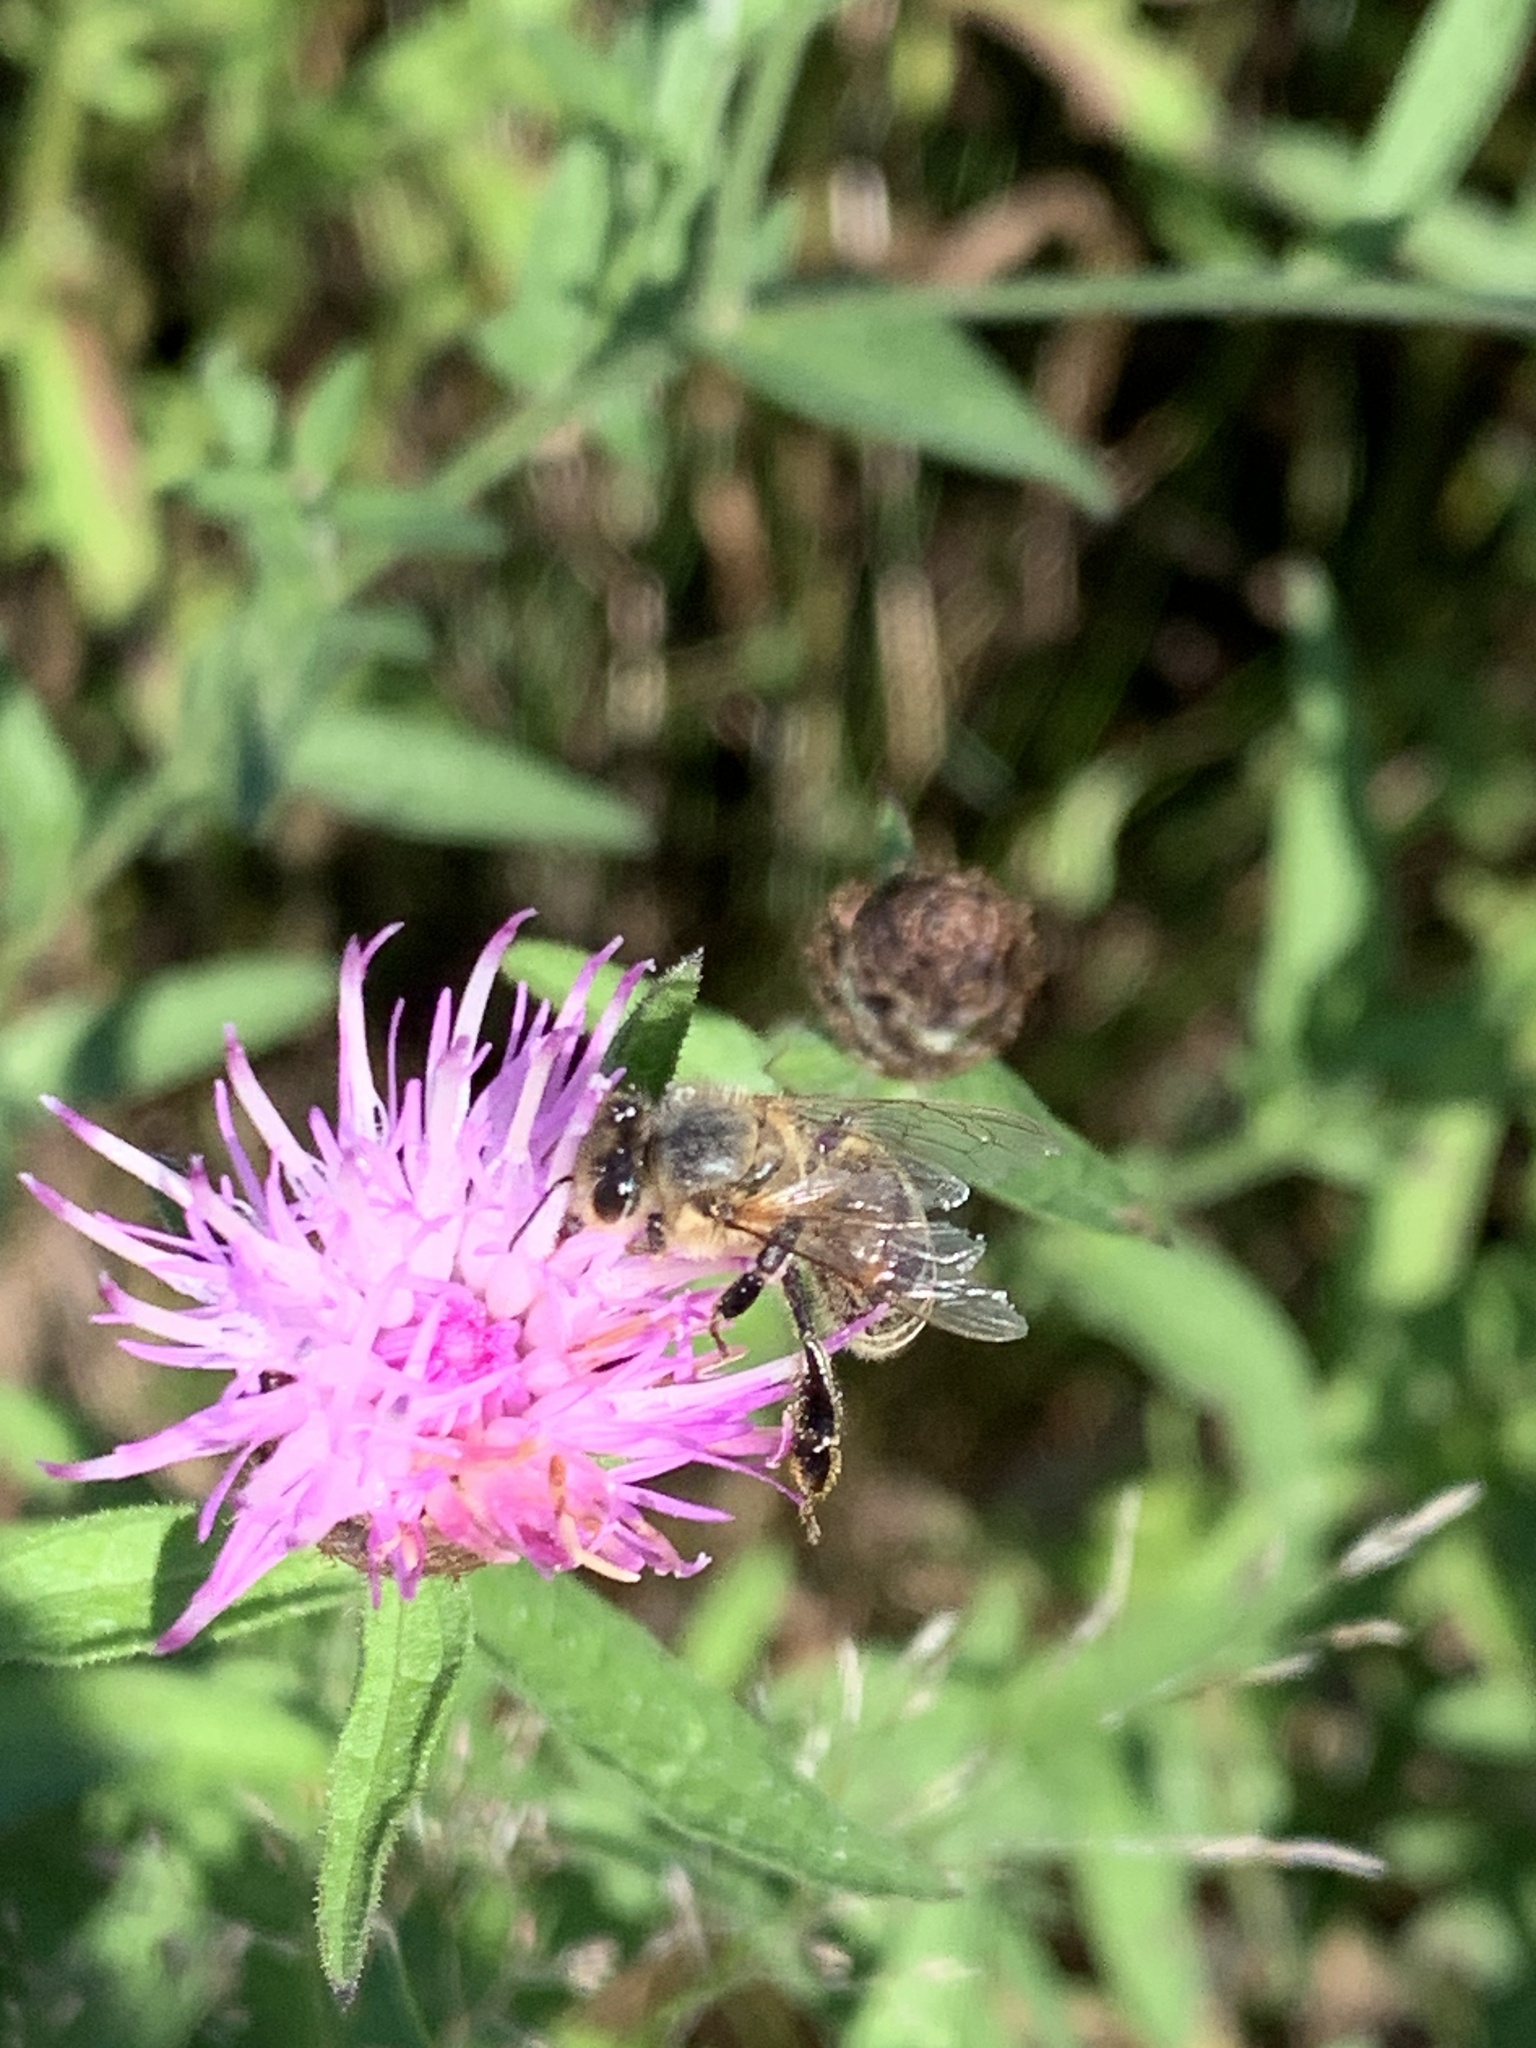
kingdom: Animalia
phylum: Arthropoda
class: Insecta
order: Hymenoptera
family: Apidae
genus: Apis
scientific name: Apis mellifera
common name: Honey bee
